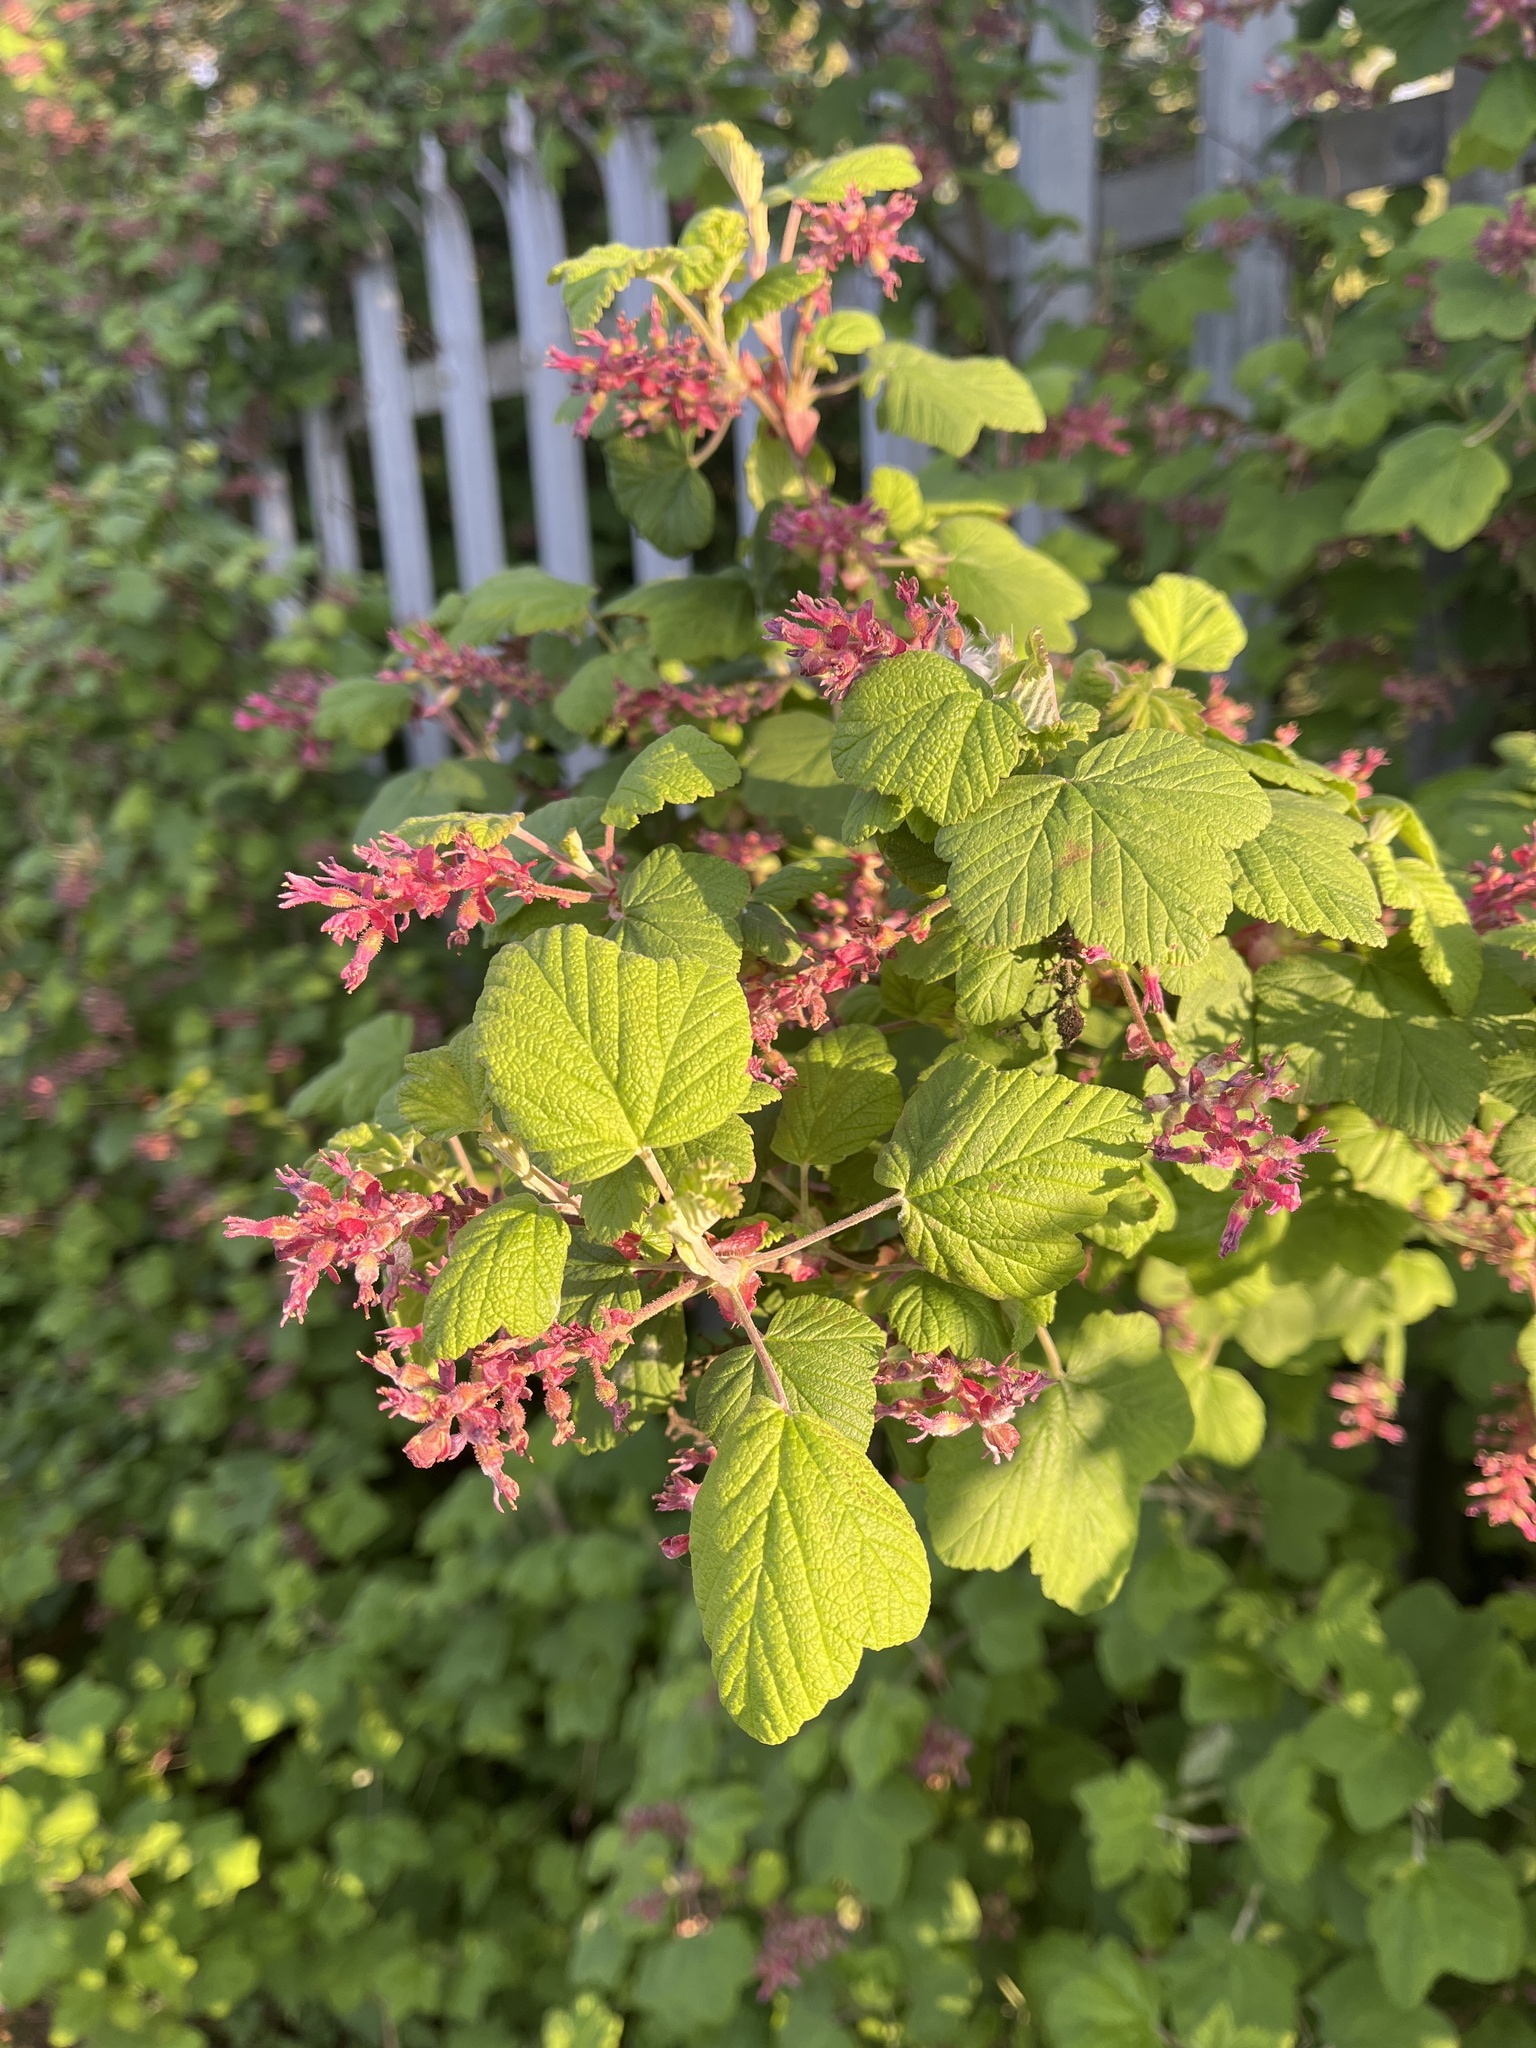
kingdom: Plantae
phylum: Tracheophyta
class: Magnoliopsida
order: Saxifragales
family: Grossulariaceae
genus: Ribes
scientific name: Ribes sanguineum
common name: Flowering currant
